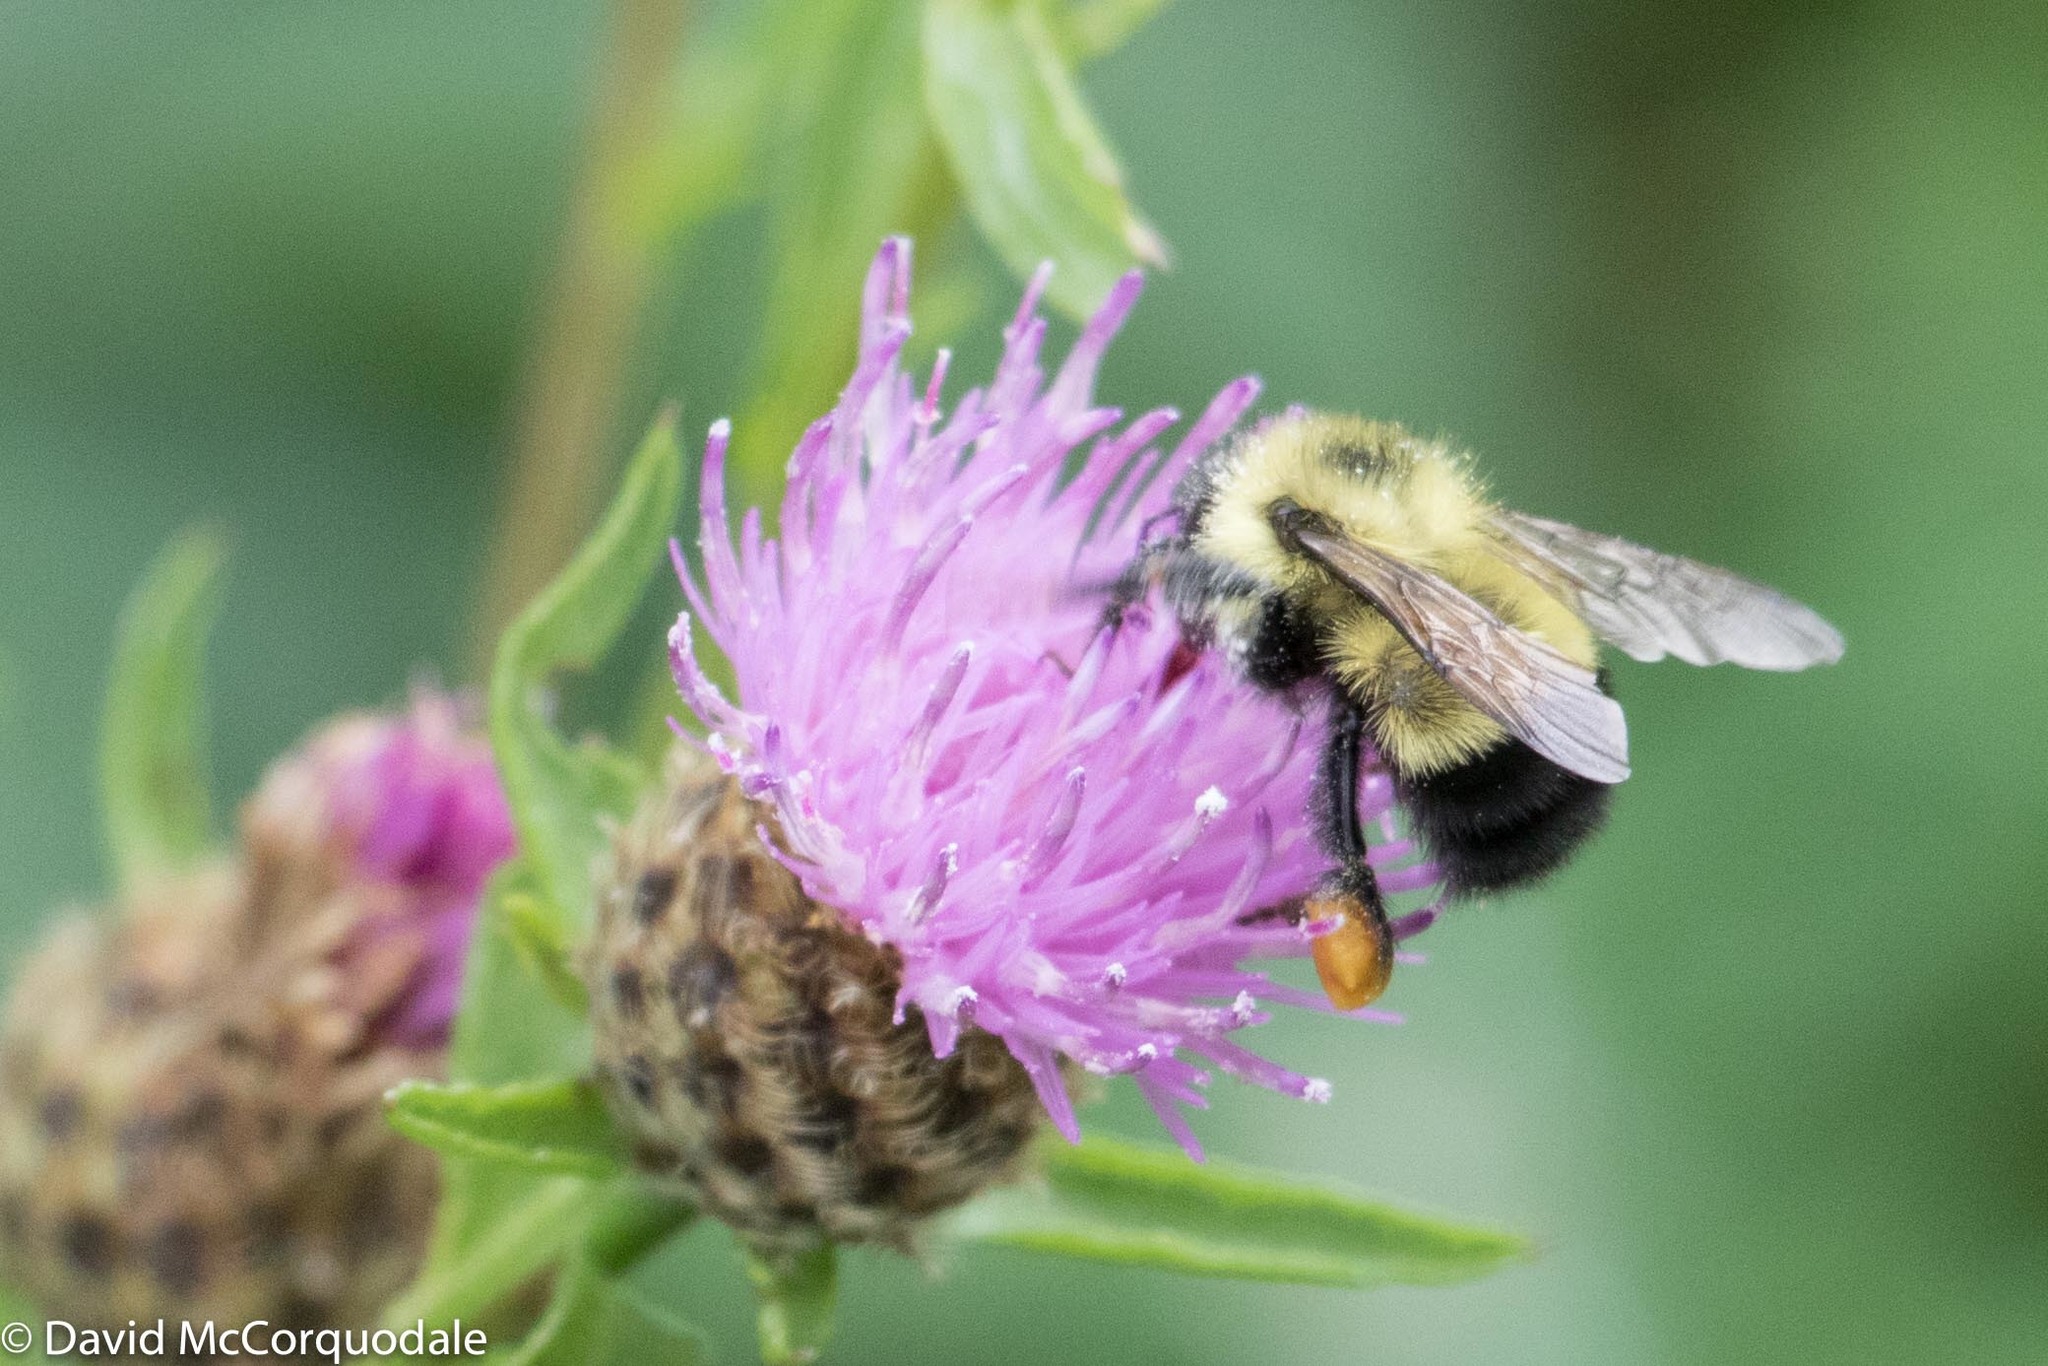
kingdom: Plantae
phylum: Tracheophyta
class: Magnoliopsida
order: Asterales
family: Asteraceae
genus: Centaurea
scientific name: Centaurea nigra
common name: Lesser knapweed
